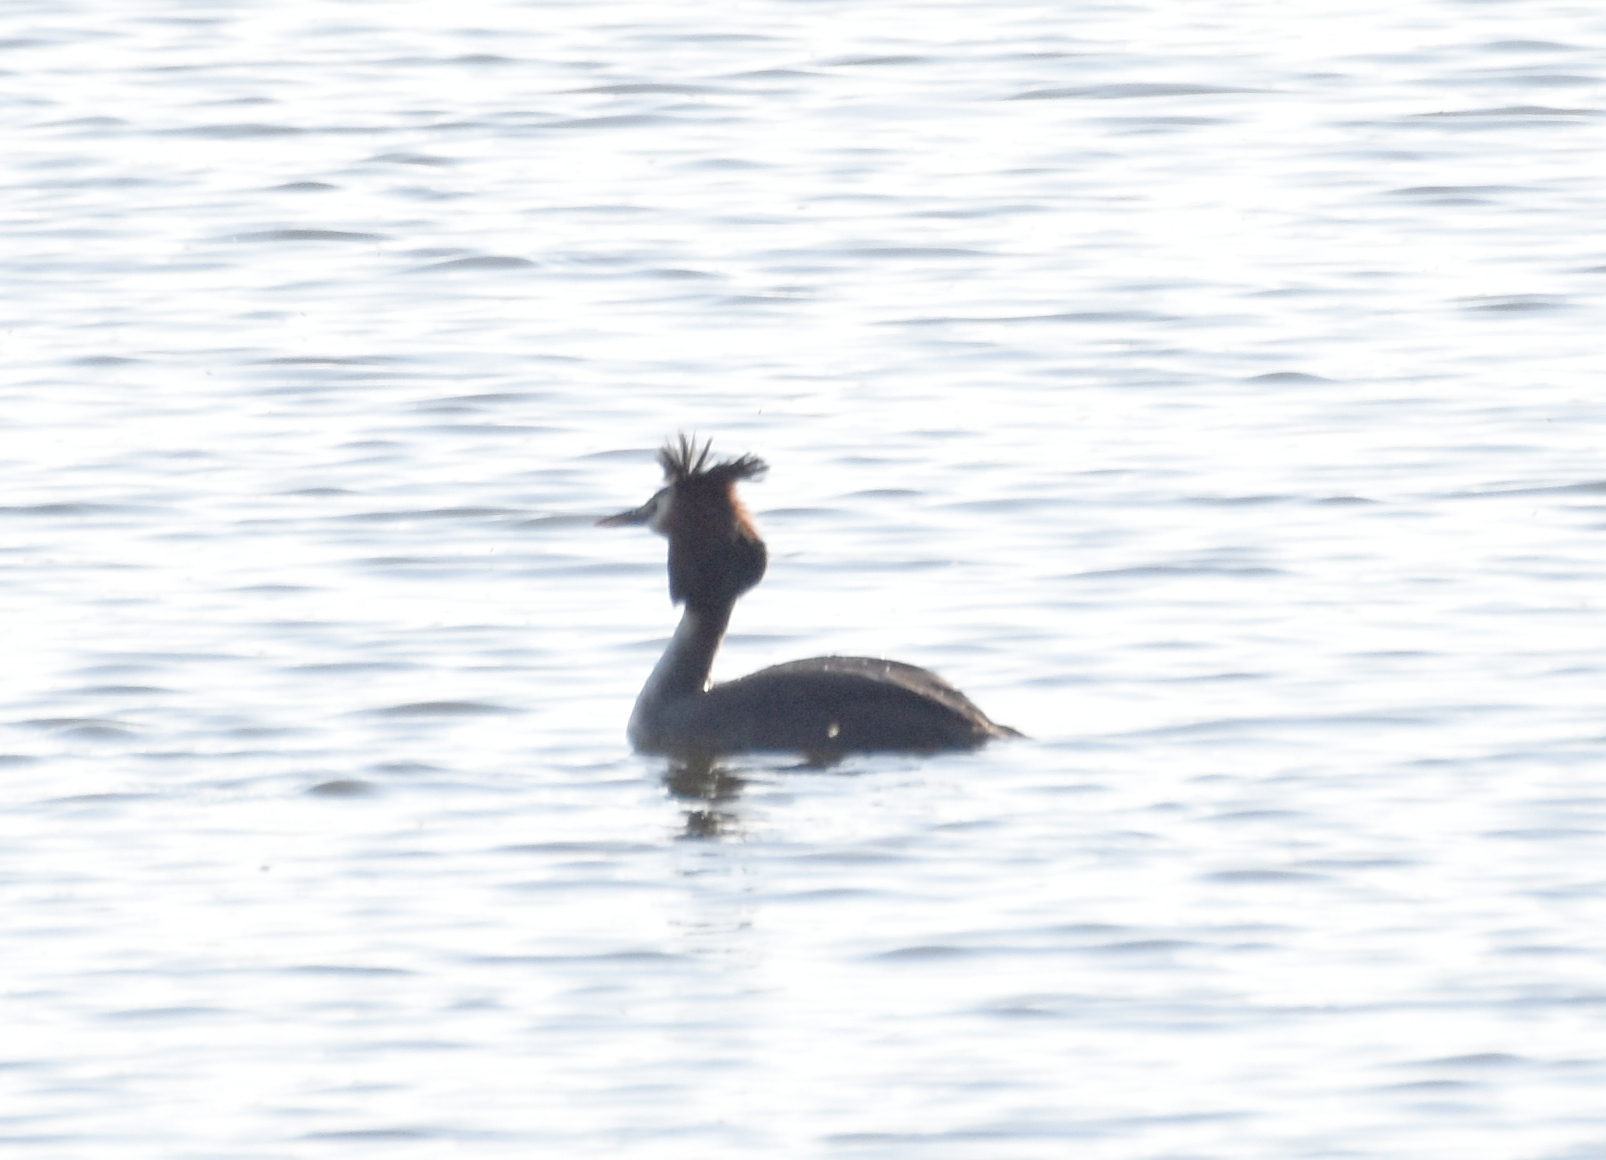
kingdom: Animalia
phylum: Chordata
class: Aves
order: Podicipediformes
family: Podicipedidae
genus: Podiceps
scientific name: Podiceps cristatus
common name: Great crested grebe
